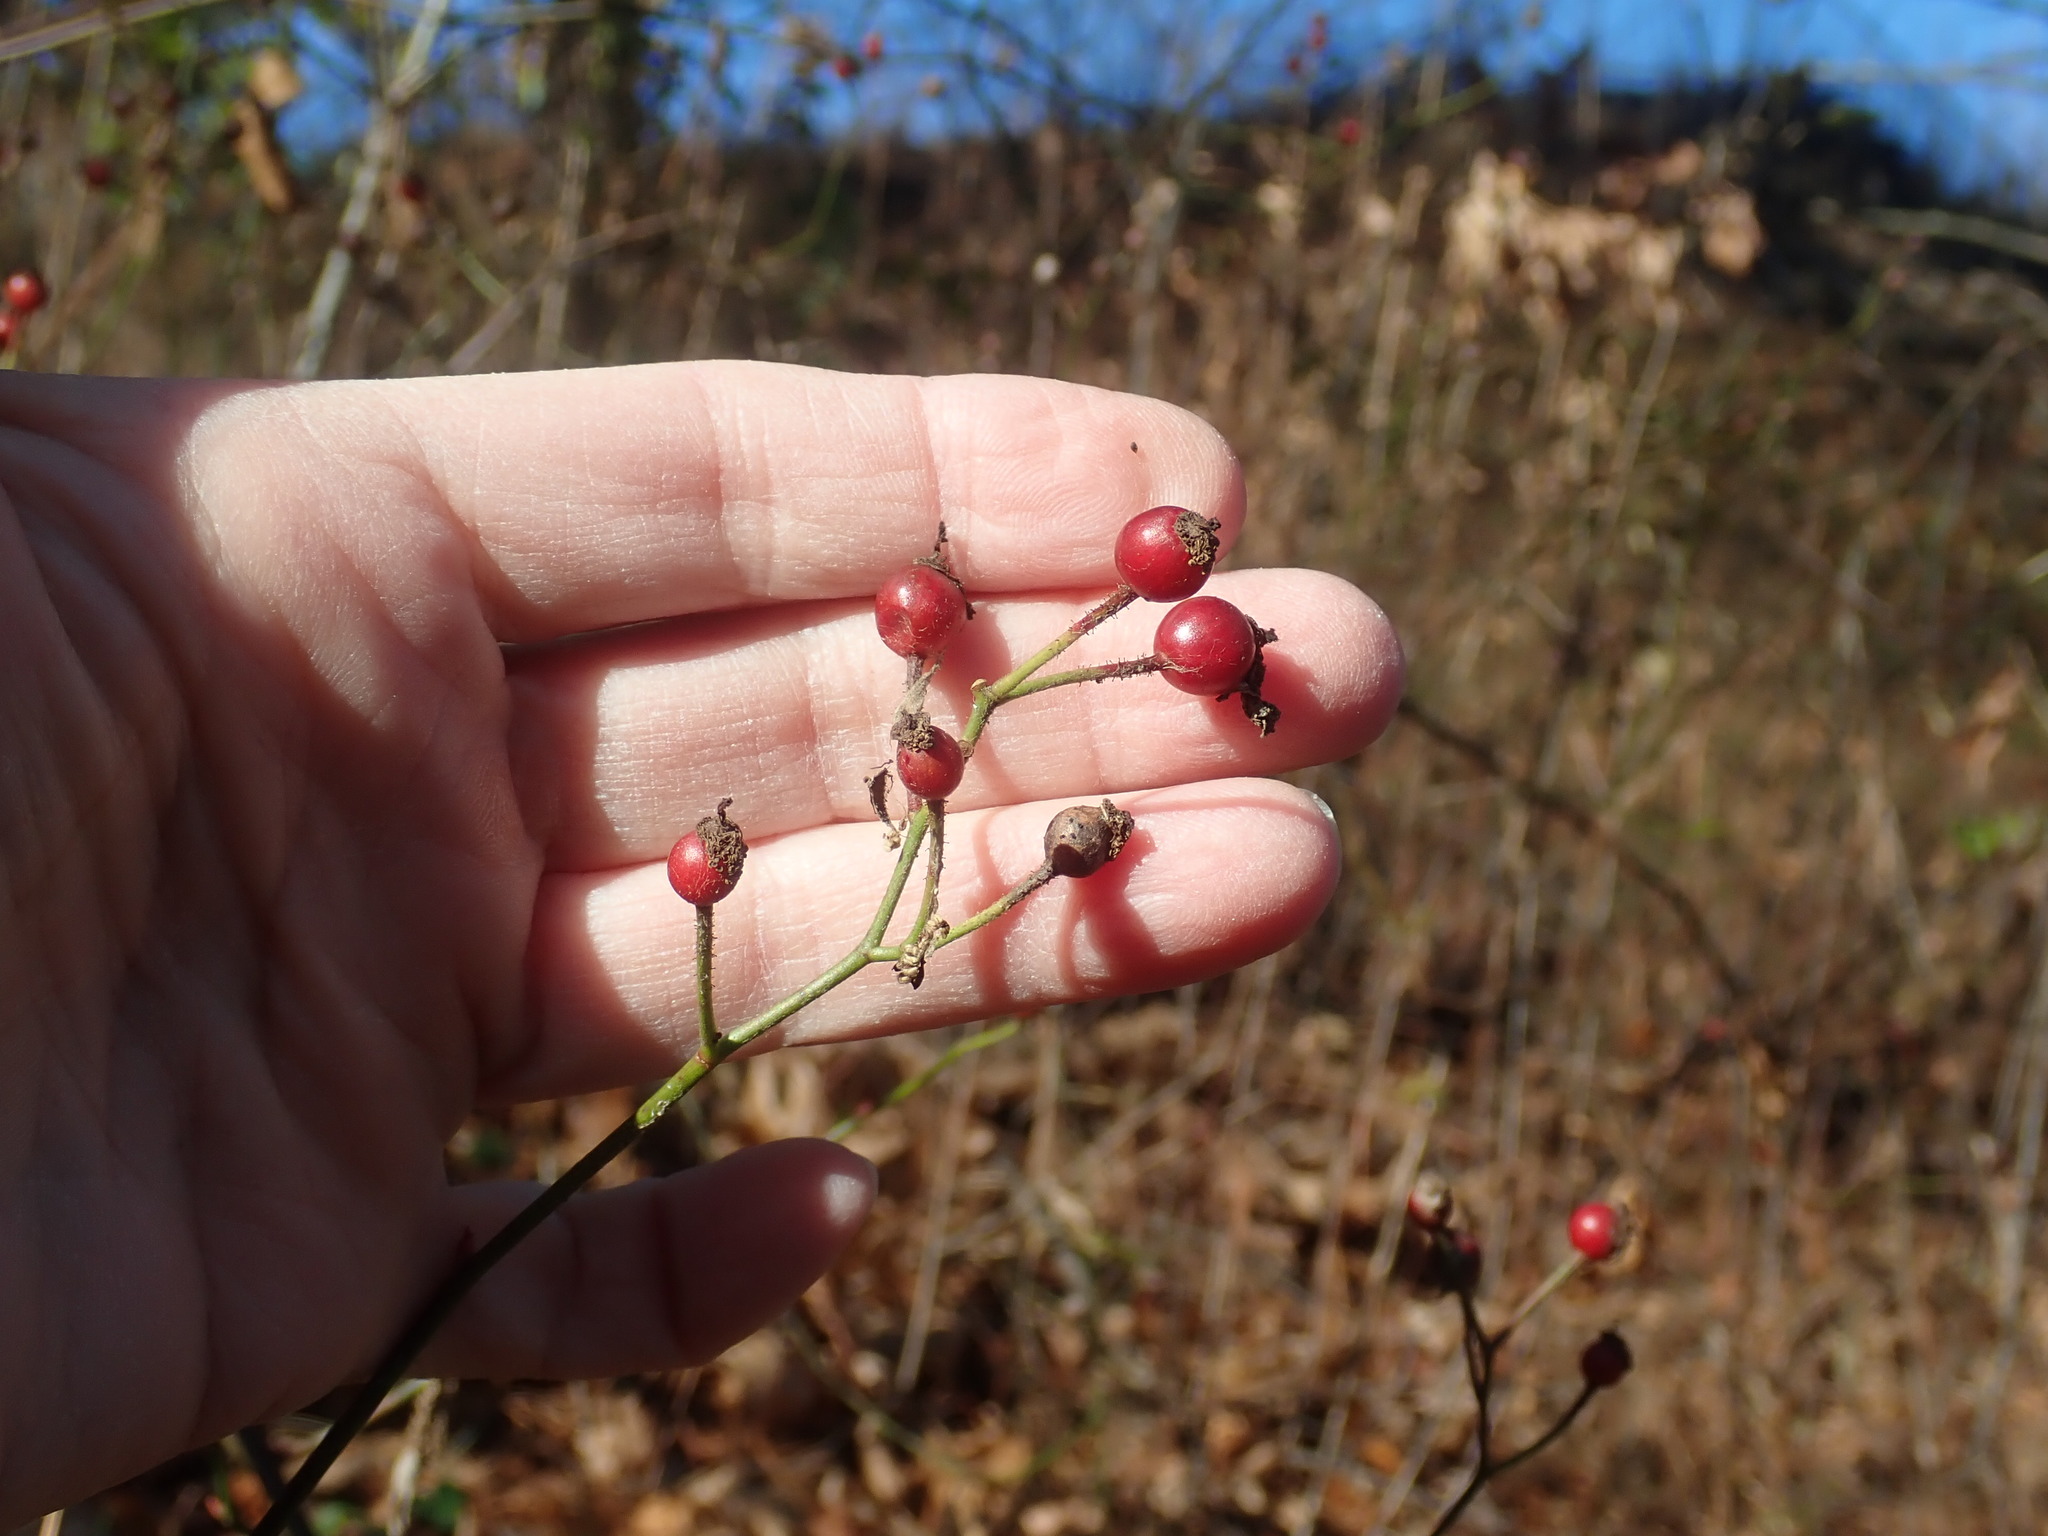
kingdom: Plantae
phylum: Tracheophyta
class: Magnoliopsida
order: Rosales
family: Rosaceae
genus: Rosa
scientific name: Rosa multiflora
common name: Multiflora rose
